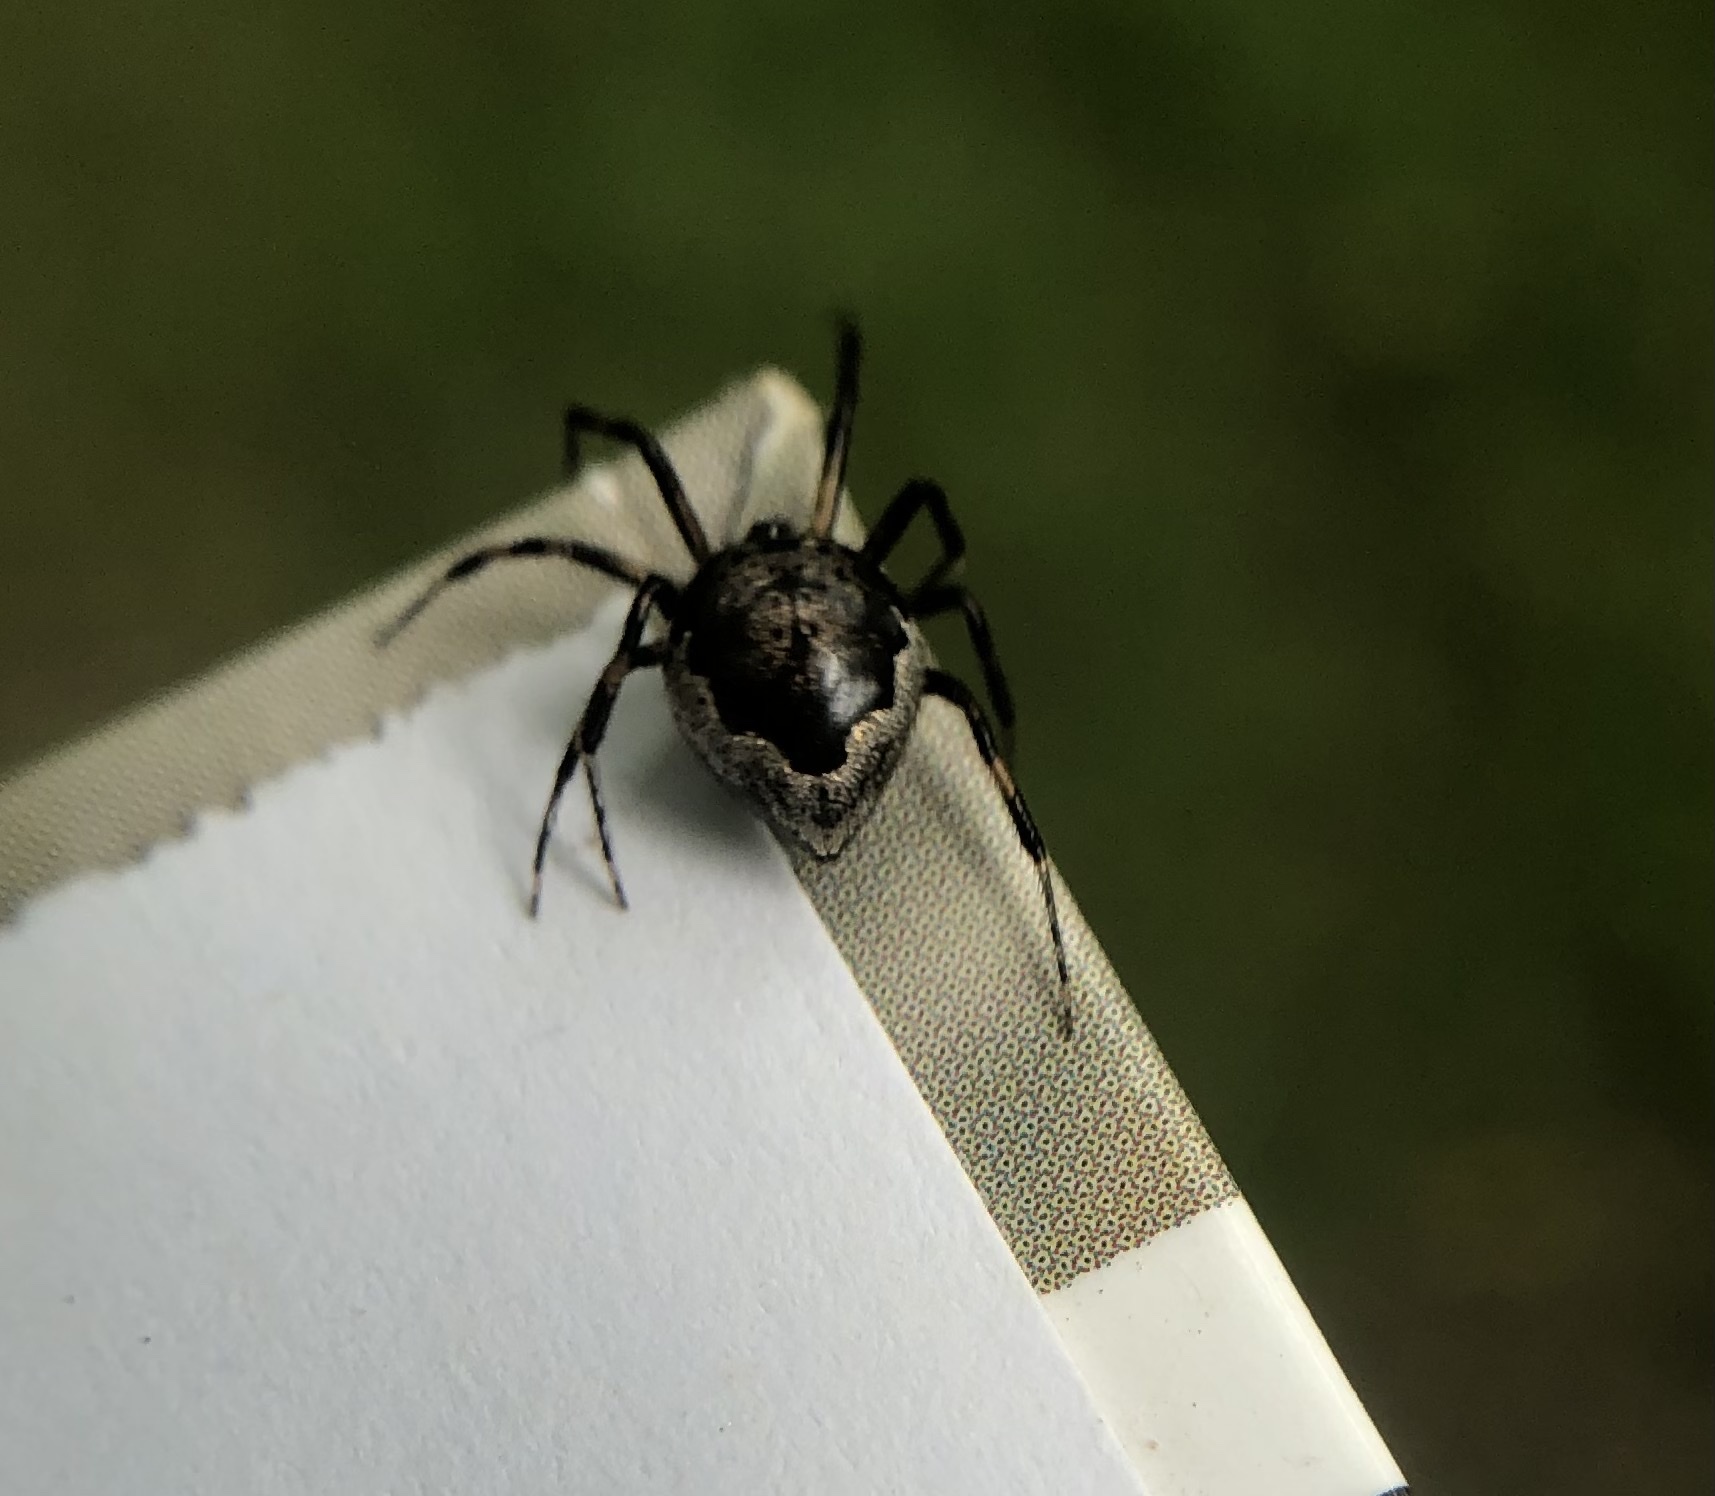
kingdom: Animalia
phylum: Arthropoda
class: Arachnida
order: Araneae
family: Theridiidae
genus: Euryopis
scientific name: Euryopis funebris
